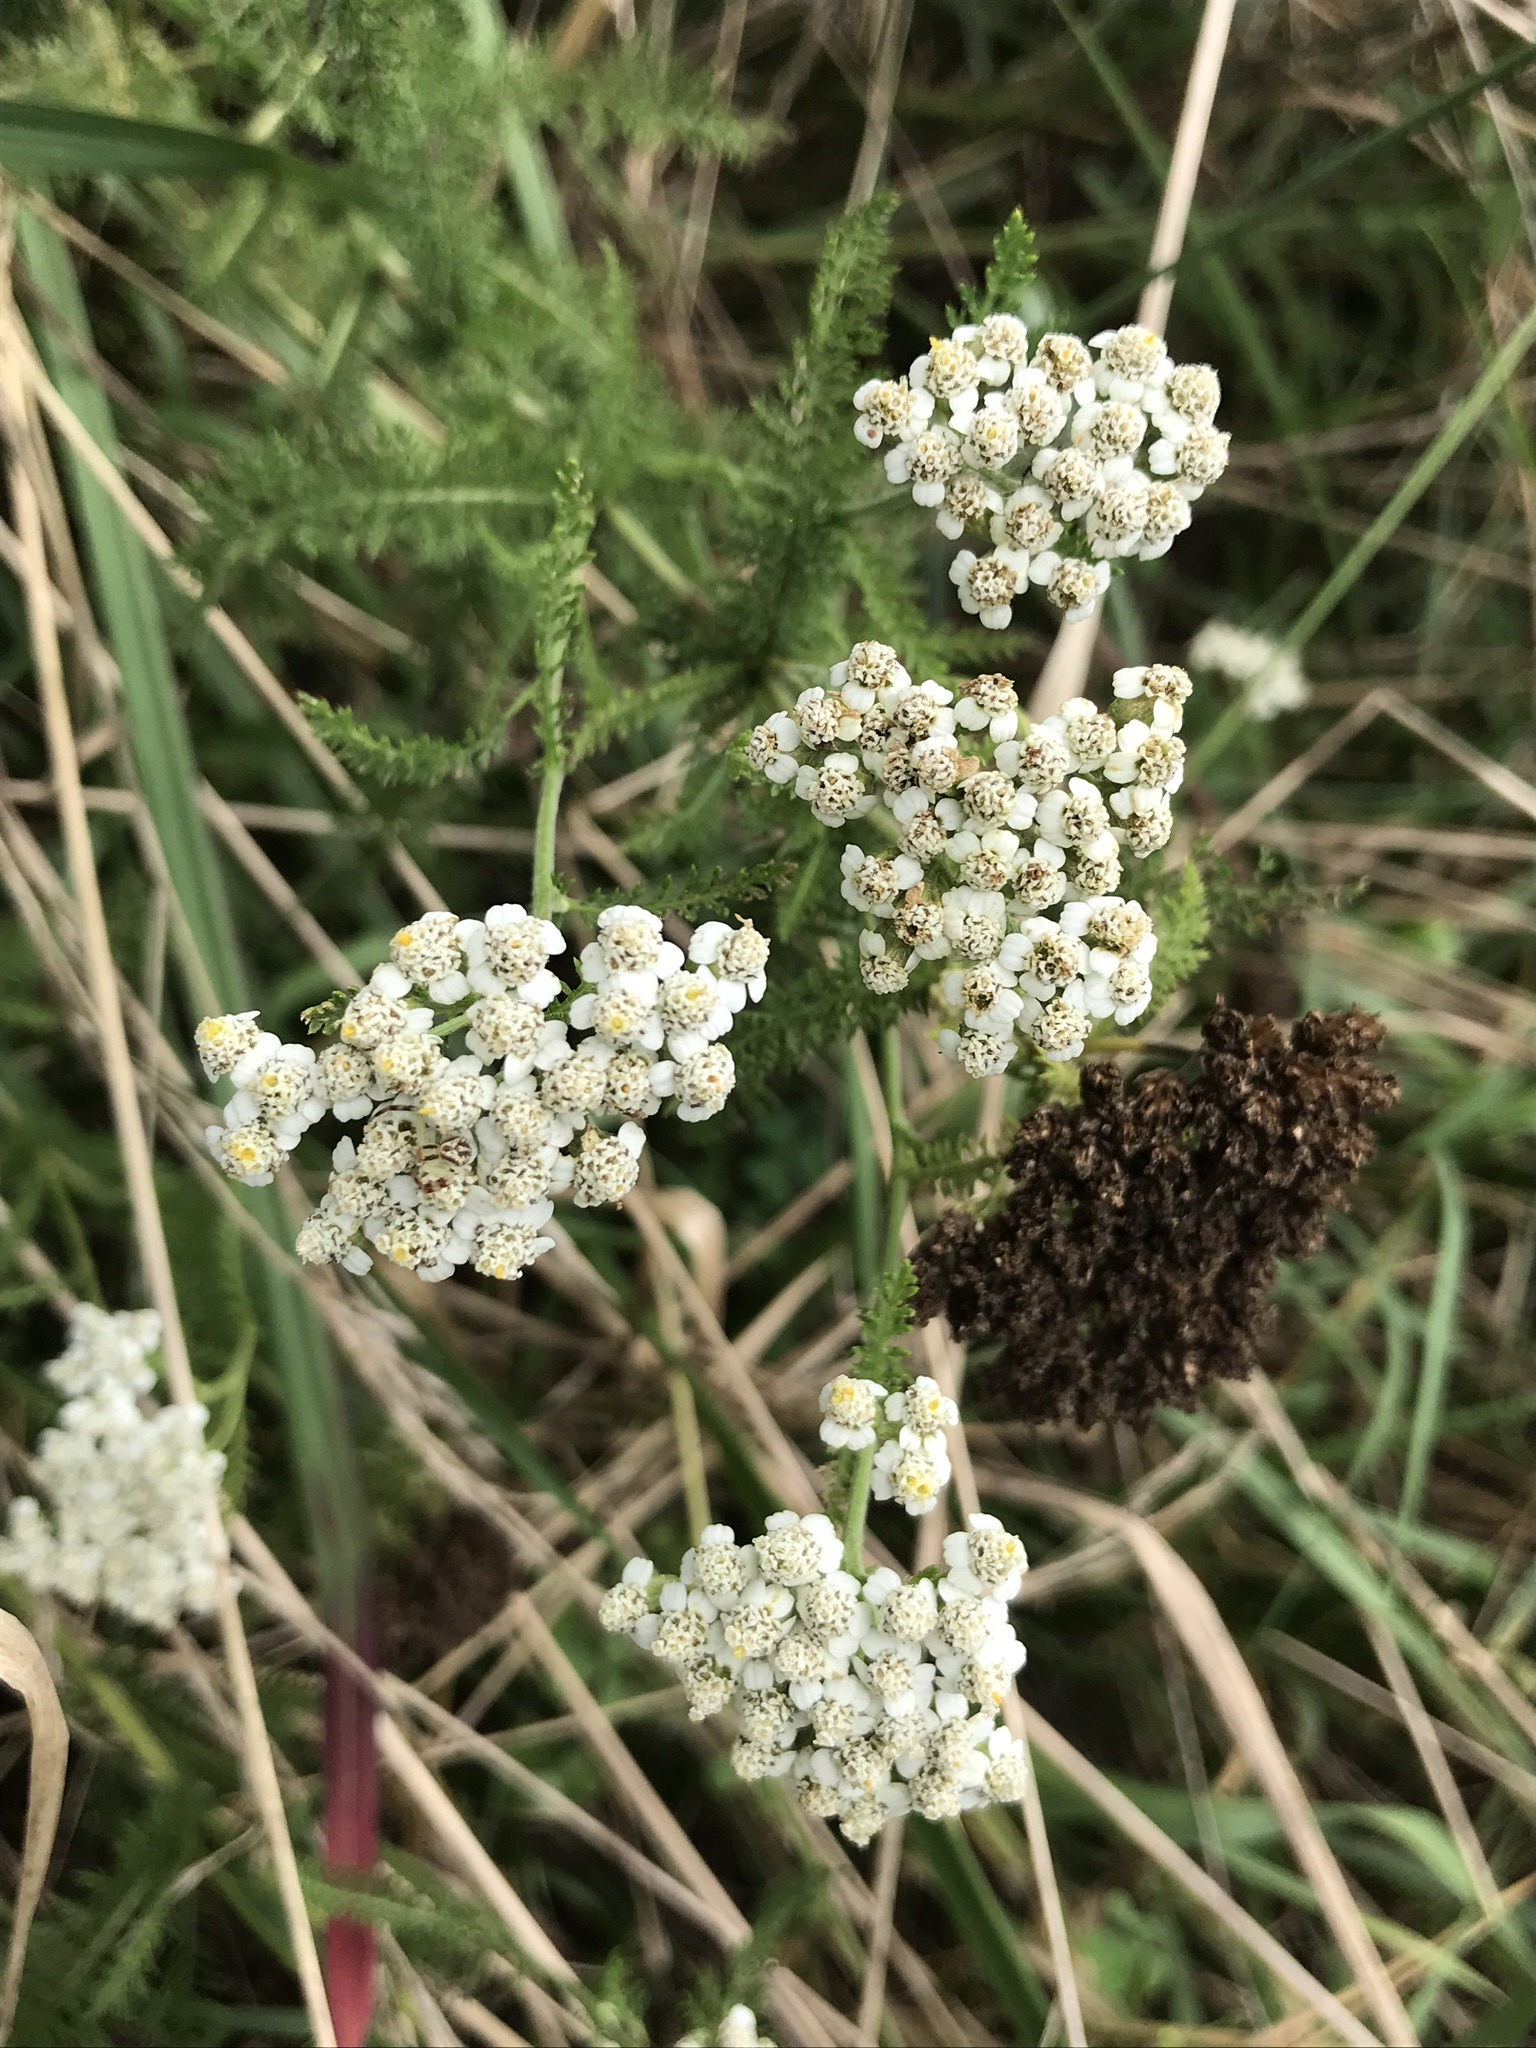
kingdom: Plantae
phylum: Tracheophyta
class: Magnoliopsida
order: Asterales
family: Asteraceae
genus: Achillea
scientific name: Achillea millefolium
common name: Yarrow
